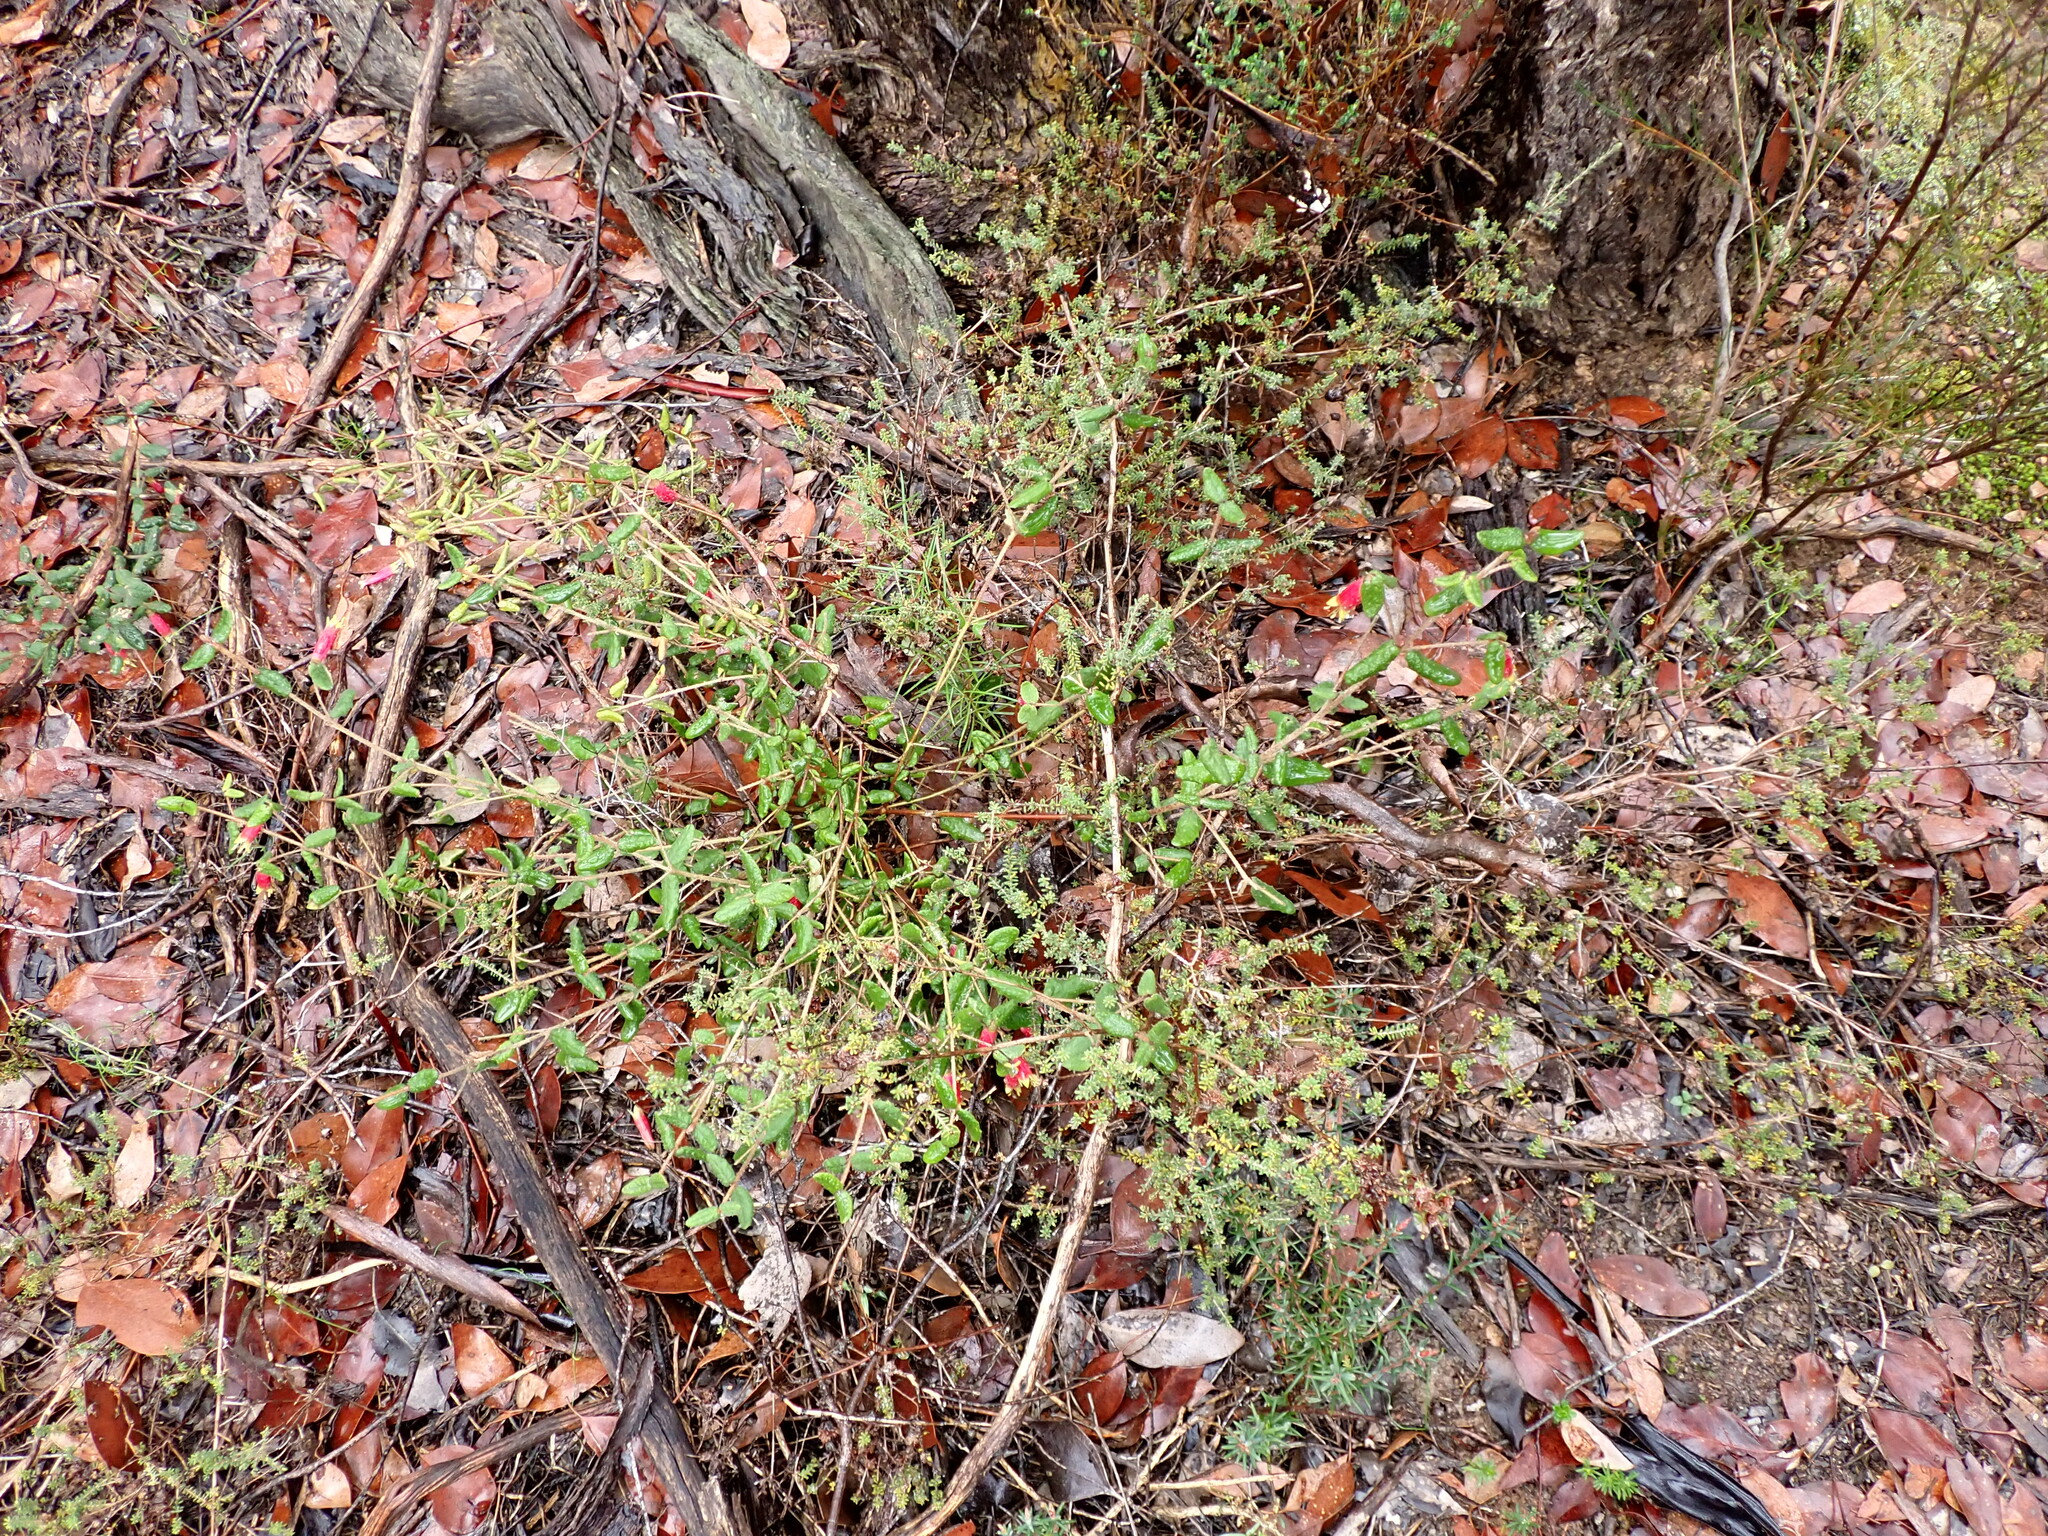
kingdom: Plantae
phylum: Tracheophyta
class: Magnoliopsida
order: Sapindales
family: Rutaceae
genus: Correa
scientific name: Correa reflexa
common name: Common correa
